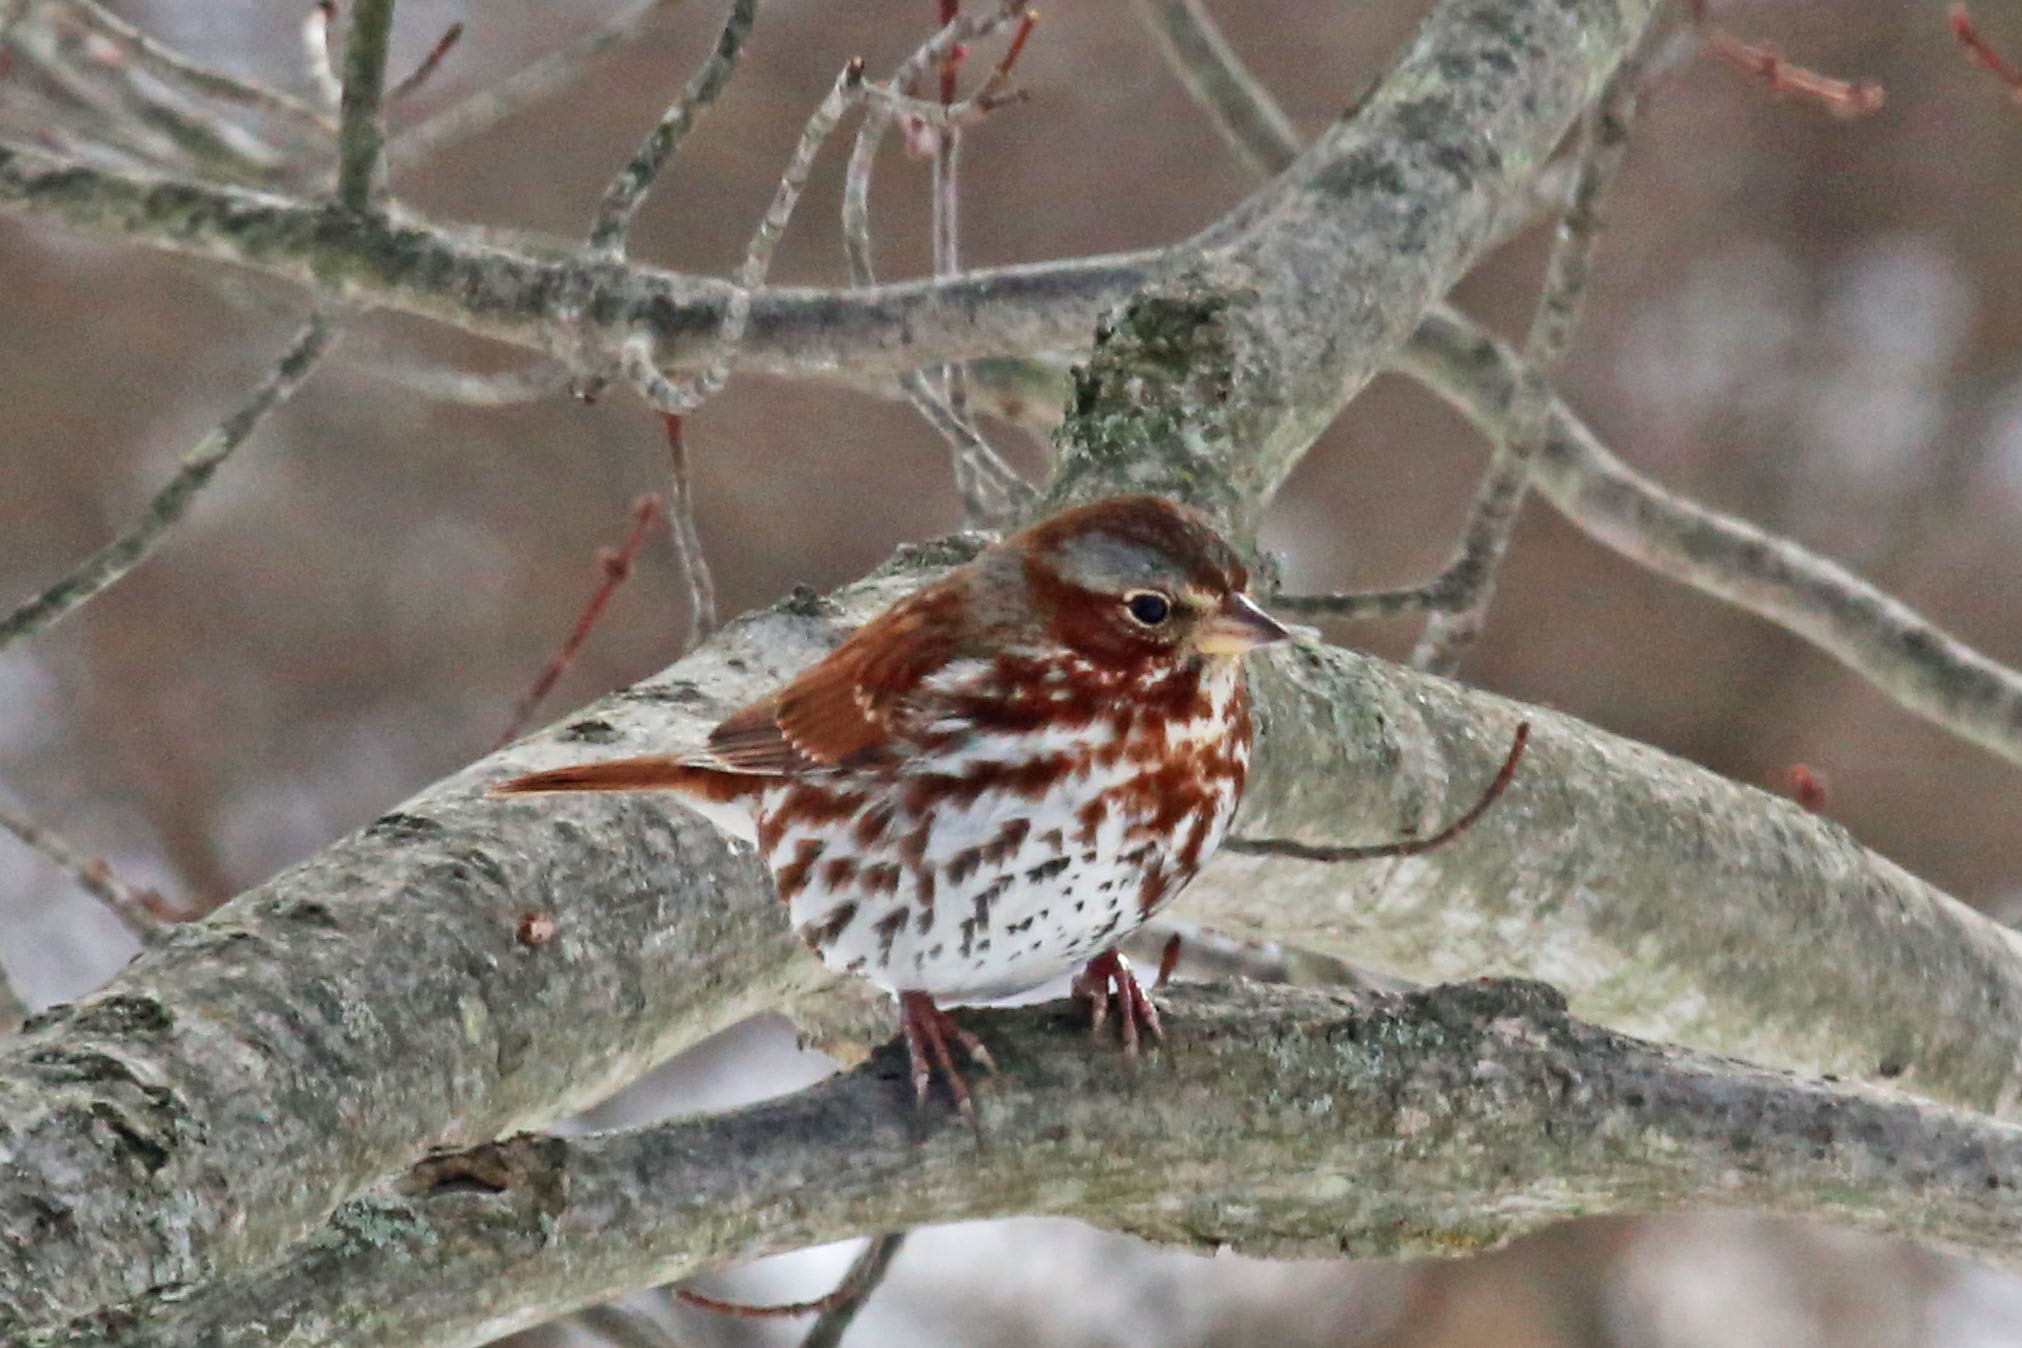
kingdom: Animalia
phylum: Chordata
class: Aves
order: Passeriformes
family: Passerellidae
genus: Passerella
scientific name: Passerella iliaca
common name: Fox sparrow
